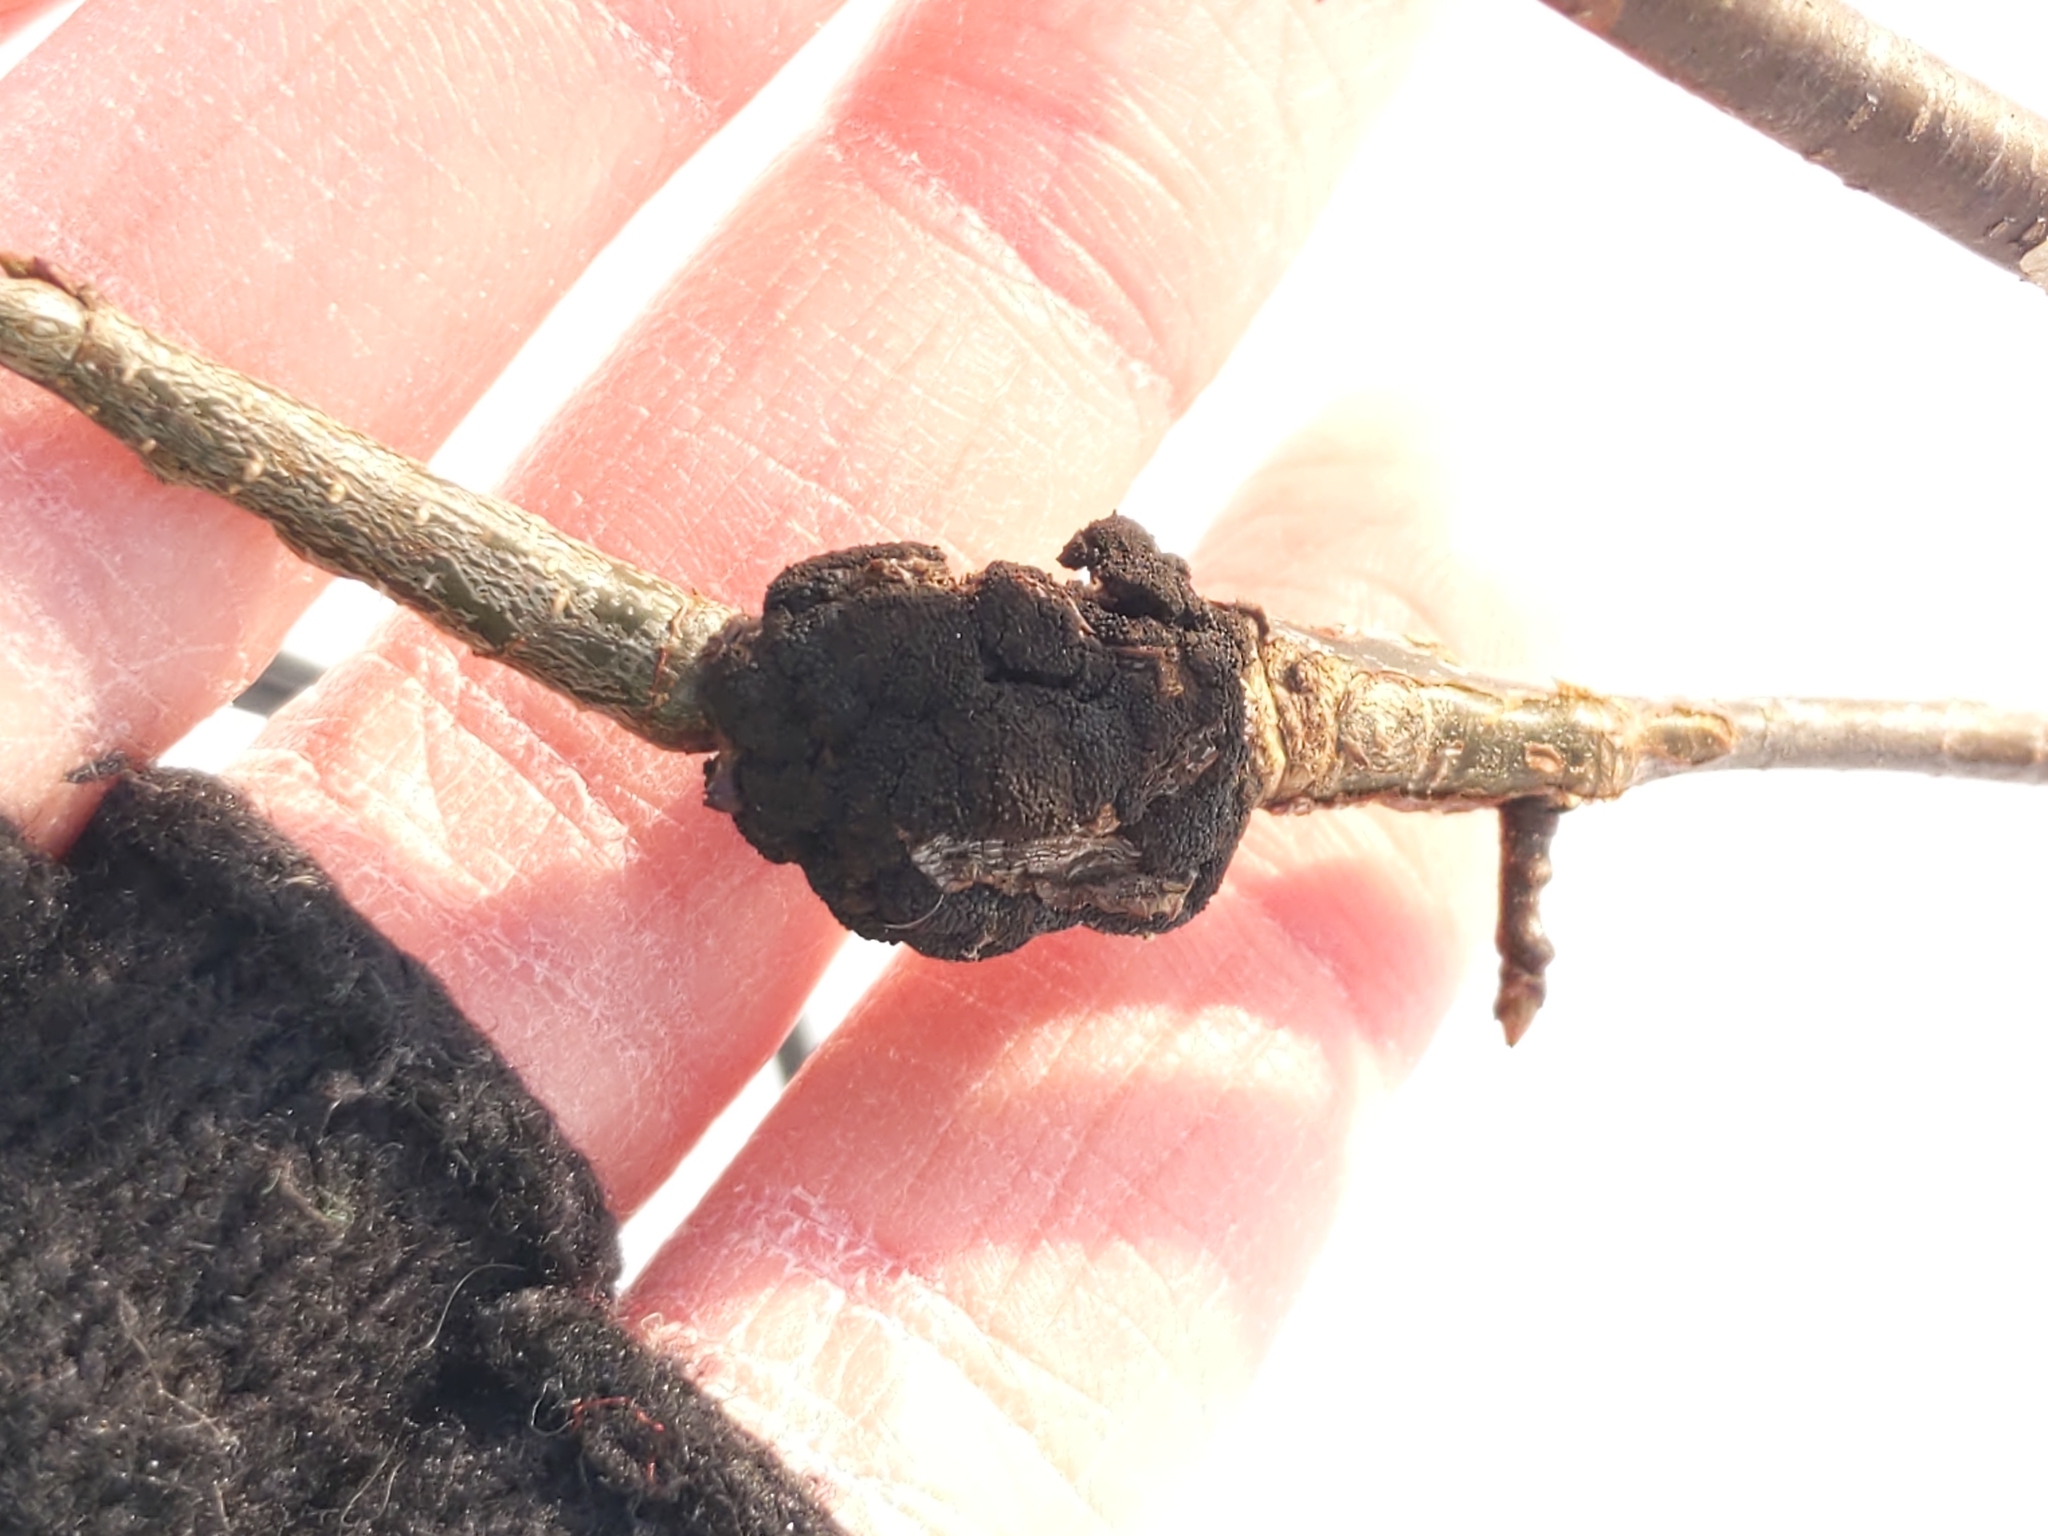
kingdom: Fungi
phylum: Ascomycota
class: Dothideomycetes
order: Venturiales
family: Venturiaceae
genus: Apiosporina
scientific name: Apiosporina morbosa
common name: Black knot
